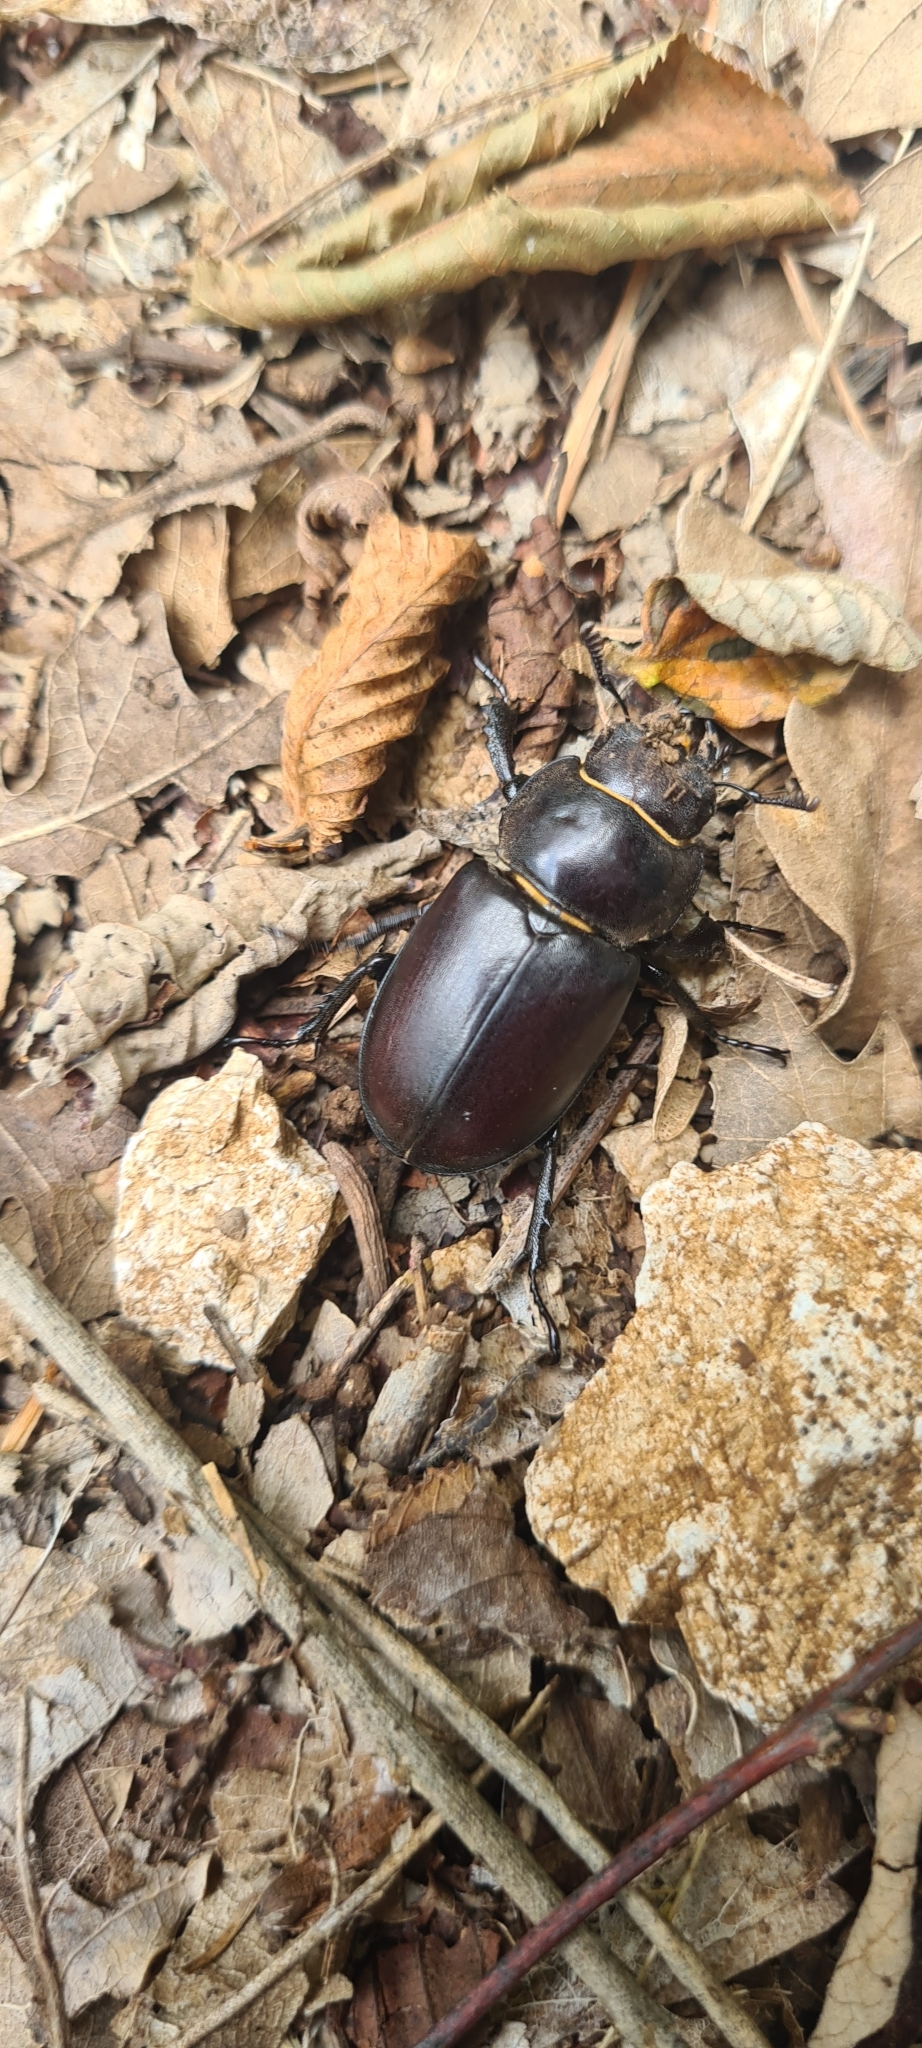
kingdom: Animalia
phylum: Arthropoda
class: Insecta
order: Coleoptera
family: Lucanidae
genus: Lucanus
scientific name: Lucanus tetraodon
